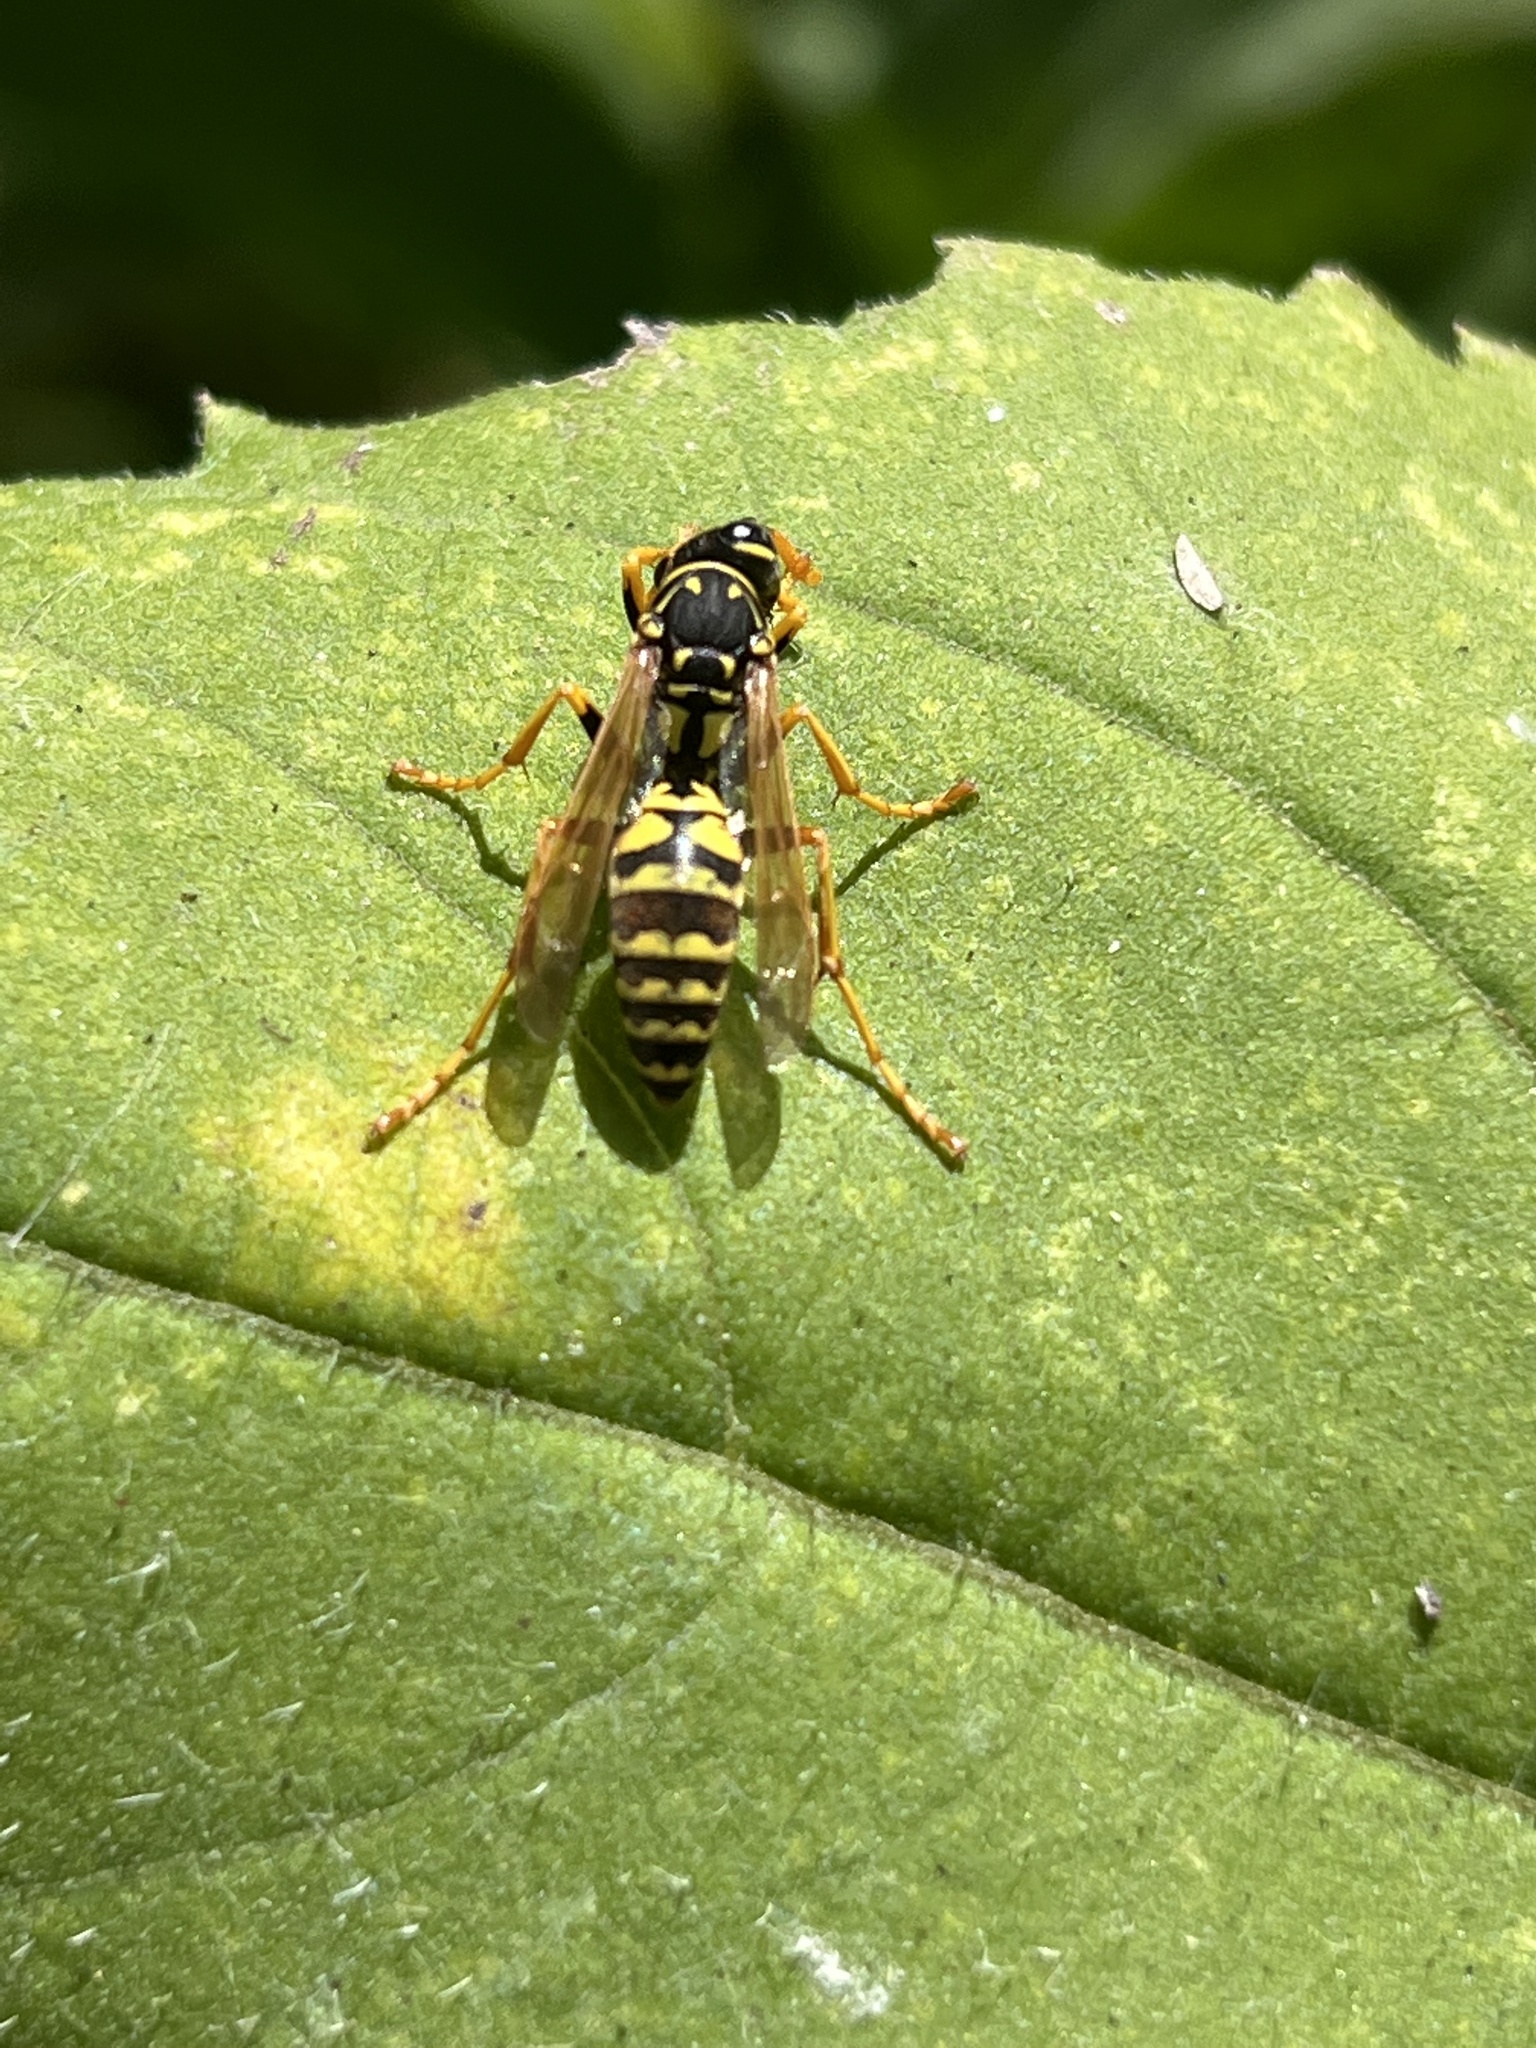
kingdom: Animalia
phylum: Arthropoda
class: Insecta
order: Hymenoptera
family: Eumenidae
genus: Polistes
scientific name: Polistes dominula
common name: Paper wasp
